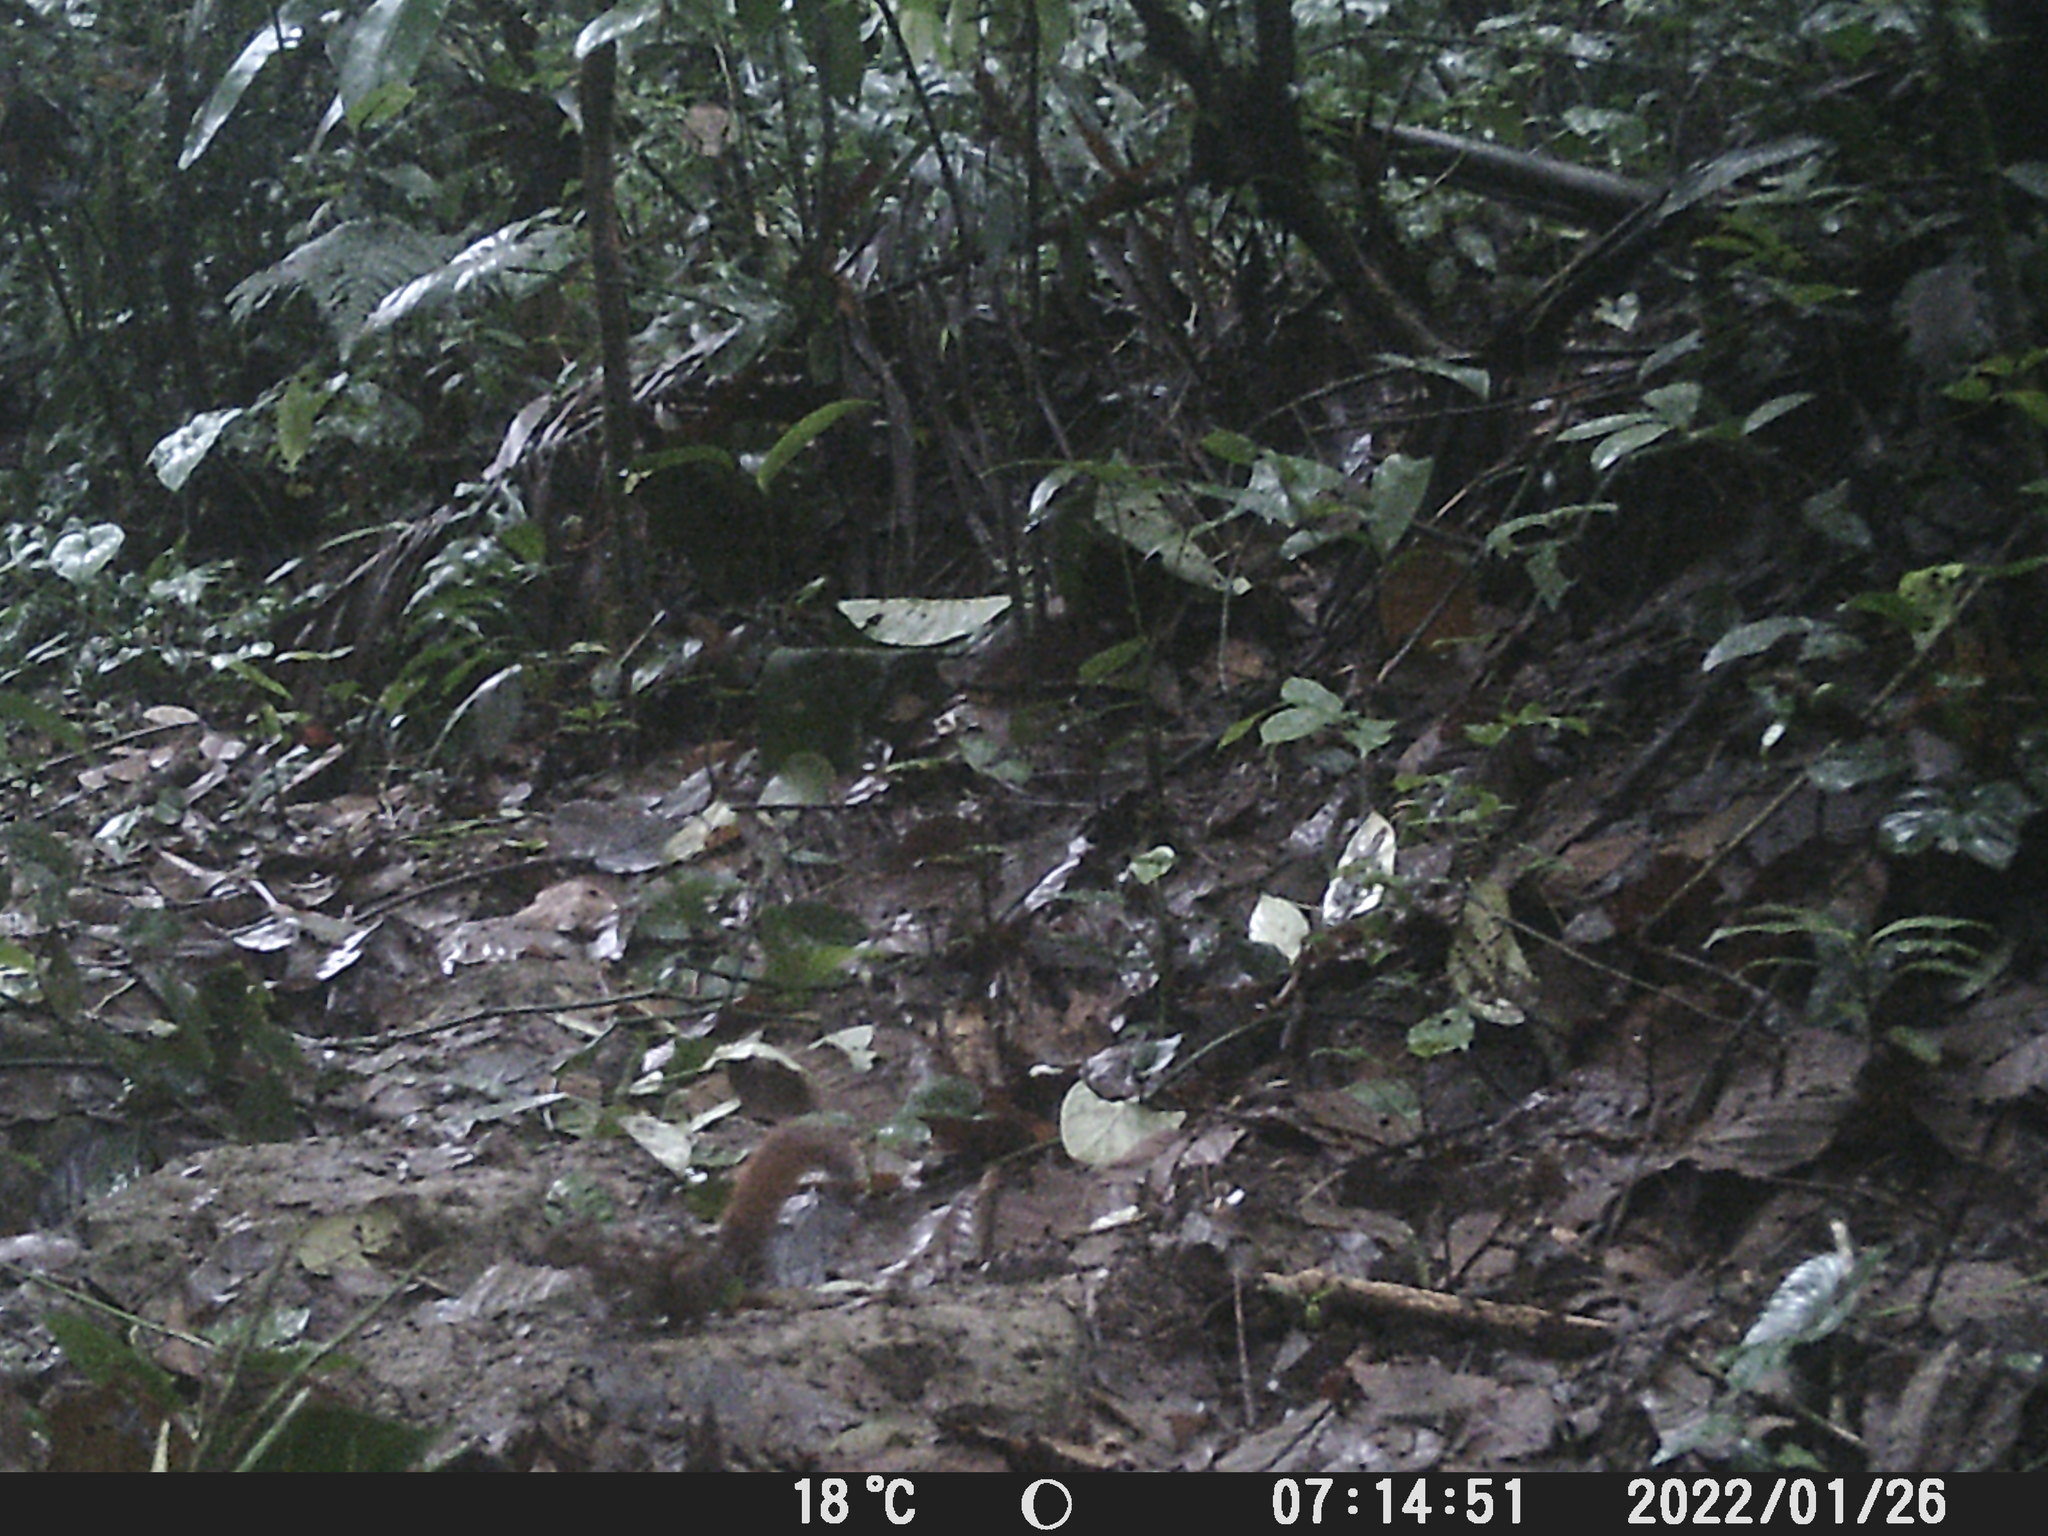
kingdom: Animalia
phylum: Chordata
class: Mammalia
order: Rodentia
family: Sciuridae
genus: Sciurus
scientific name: Sciurus granatensis
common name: Red-tailed squirrel
